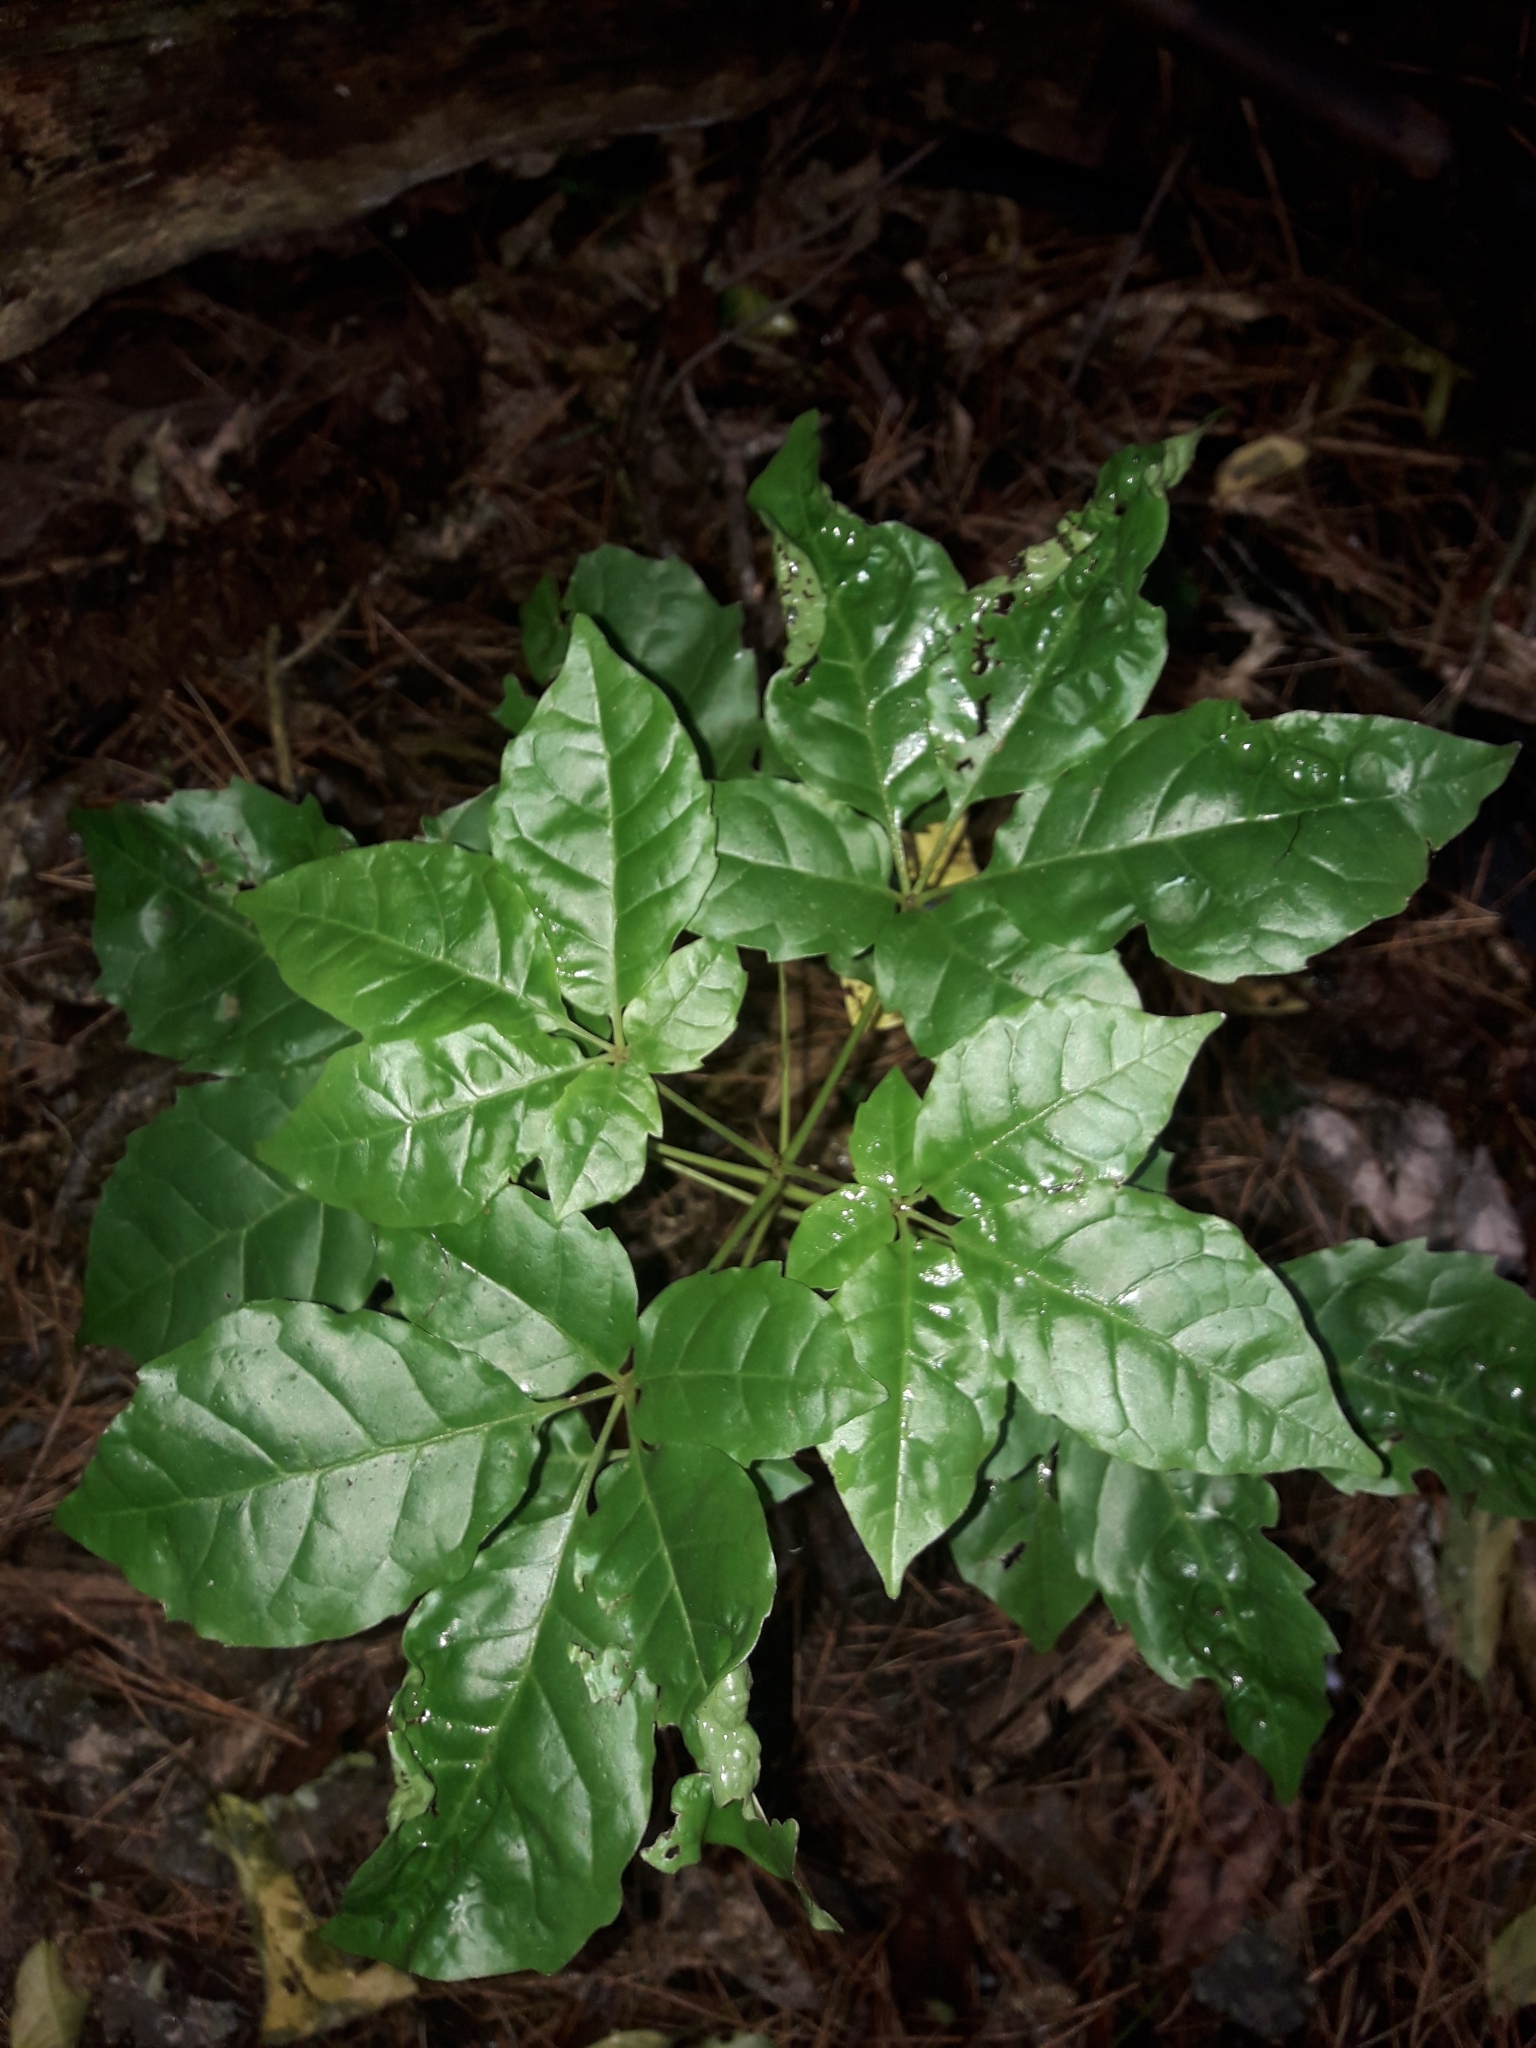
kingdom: Plantae
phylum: Tracheophyta
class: Magnoliopsida
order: Lamiales
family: Lamiaceae
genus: Vitex
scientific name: Vitex lucens
